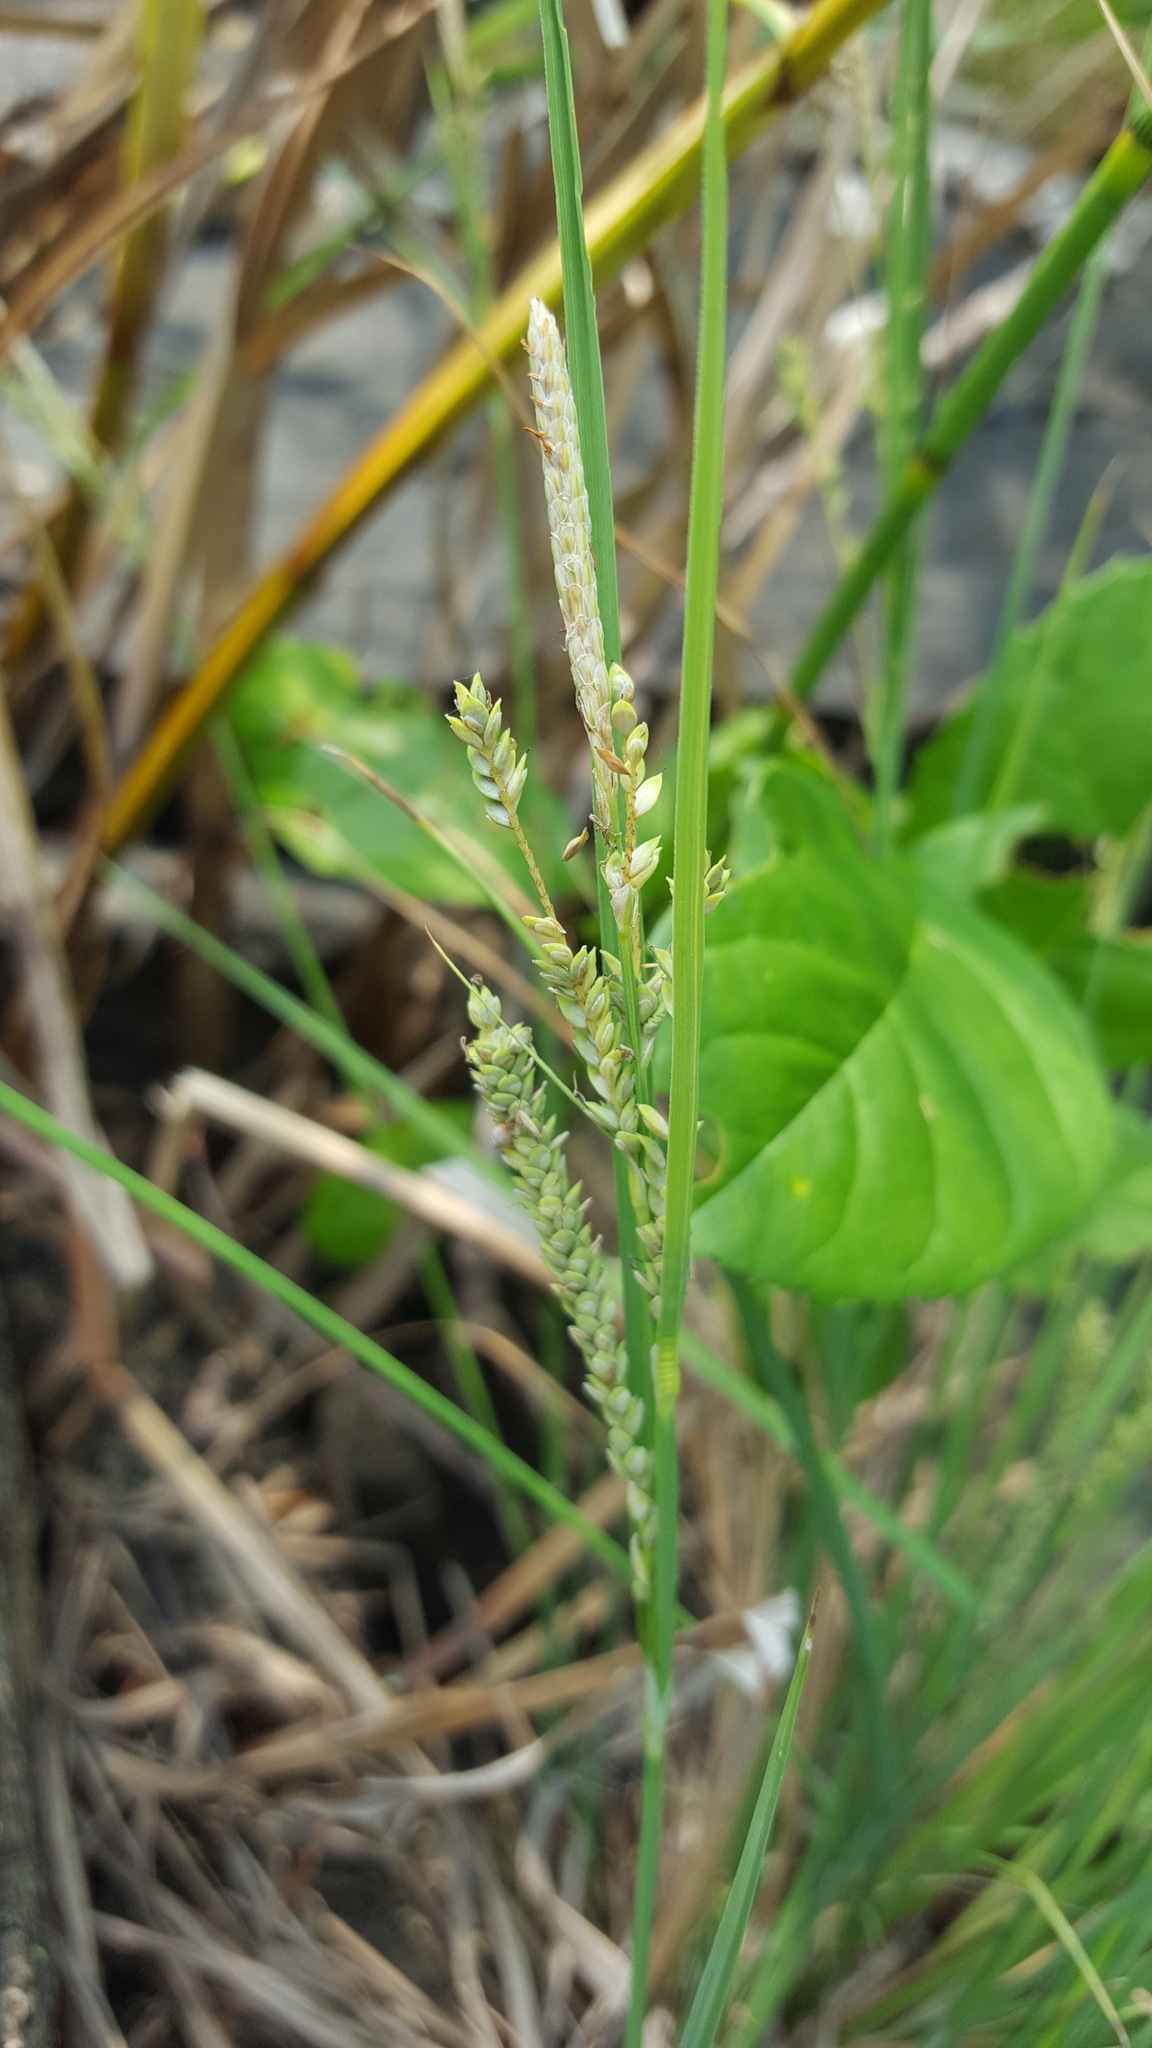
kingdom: Plantae
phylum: Tracheophyta
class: Liliopsida
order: Poales
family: Cyperaceae
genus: Carex
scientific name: Carex lenticularis
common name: Lakeshore sedge
